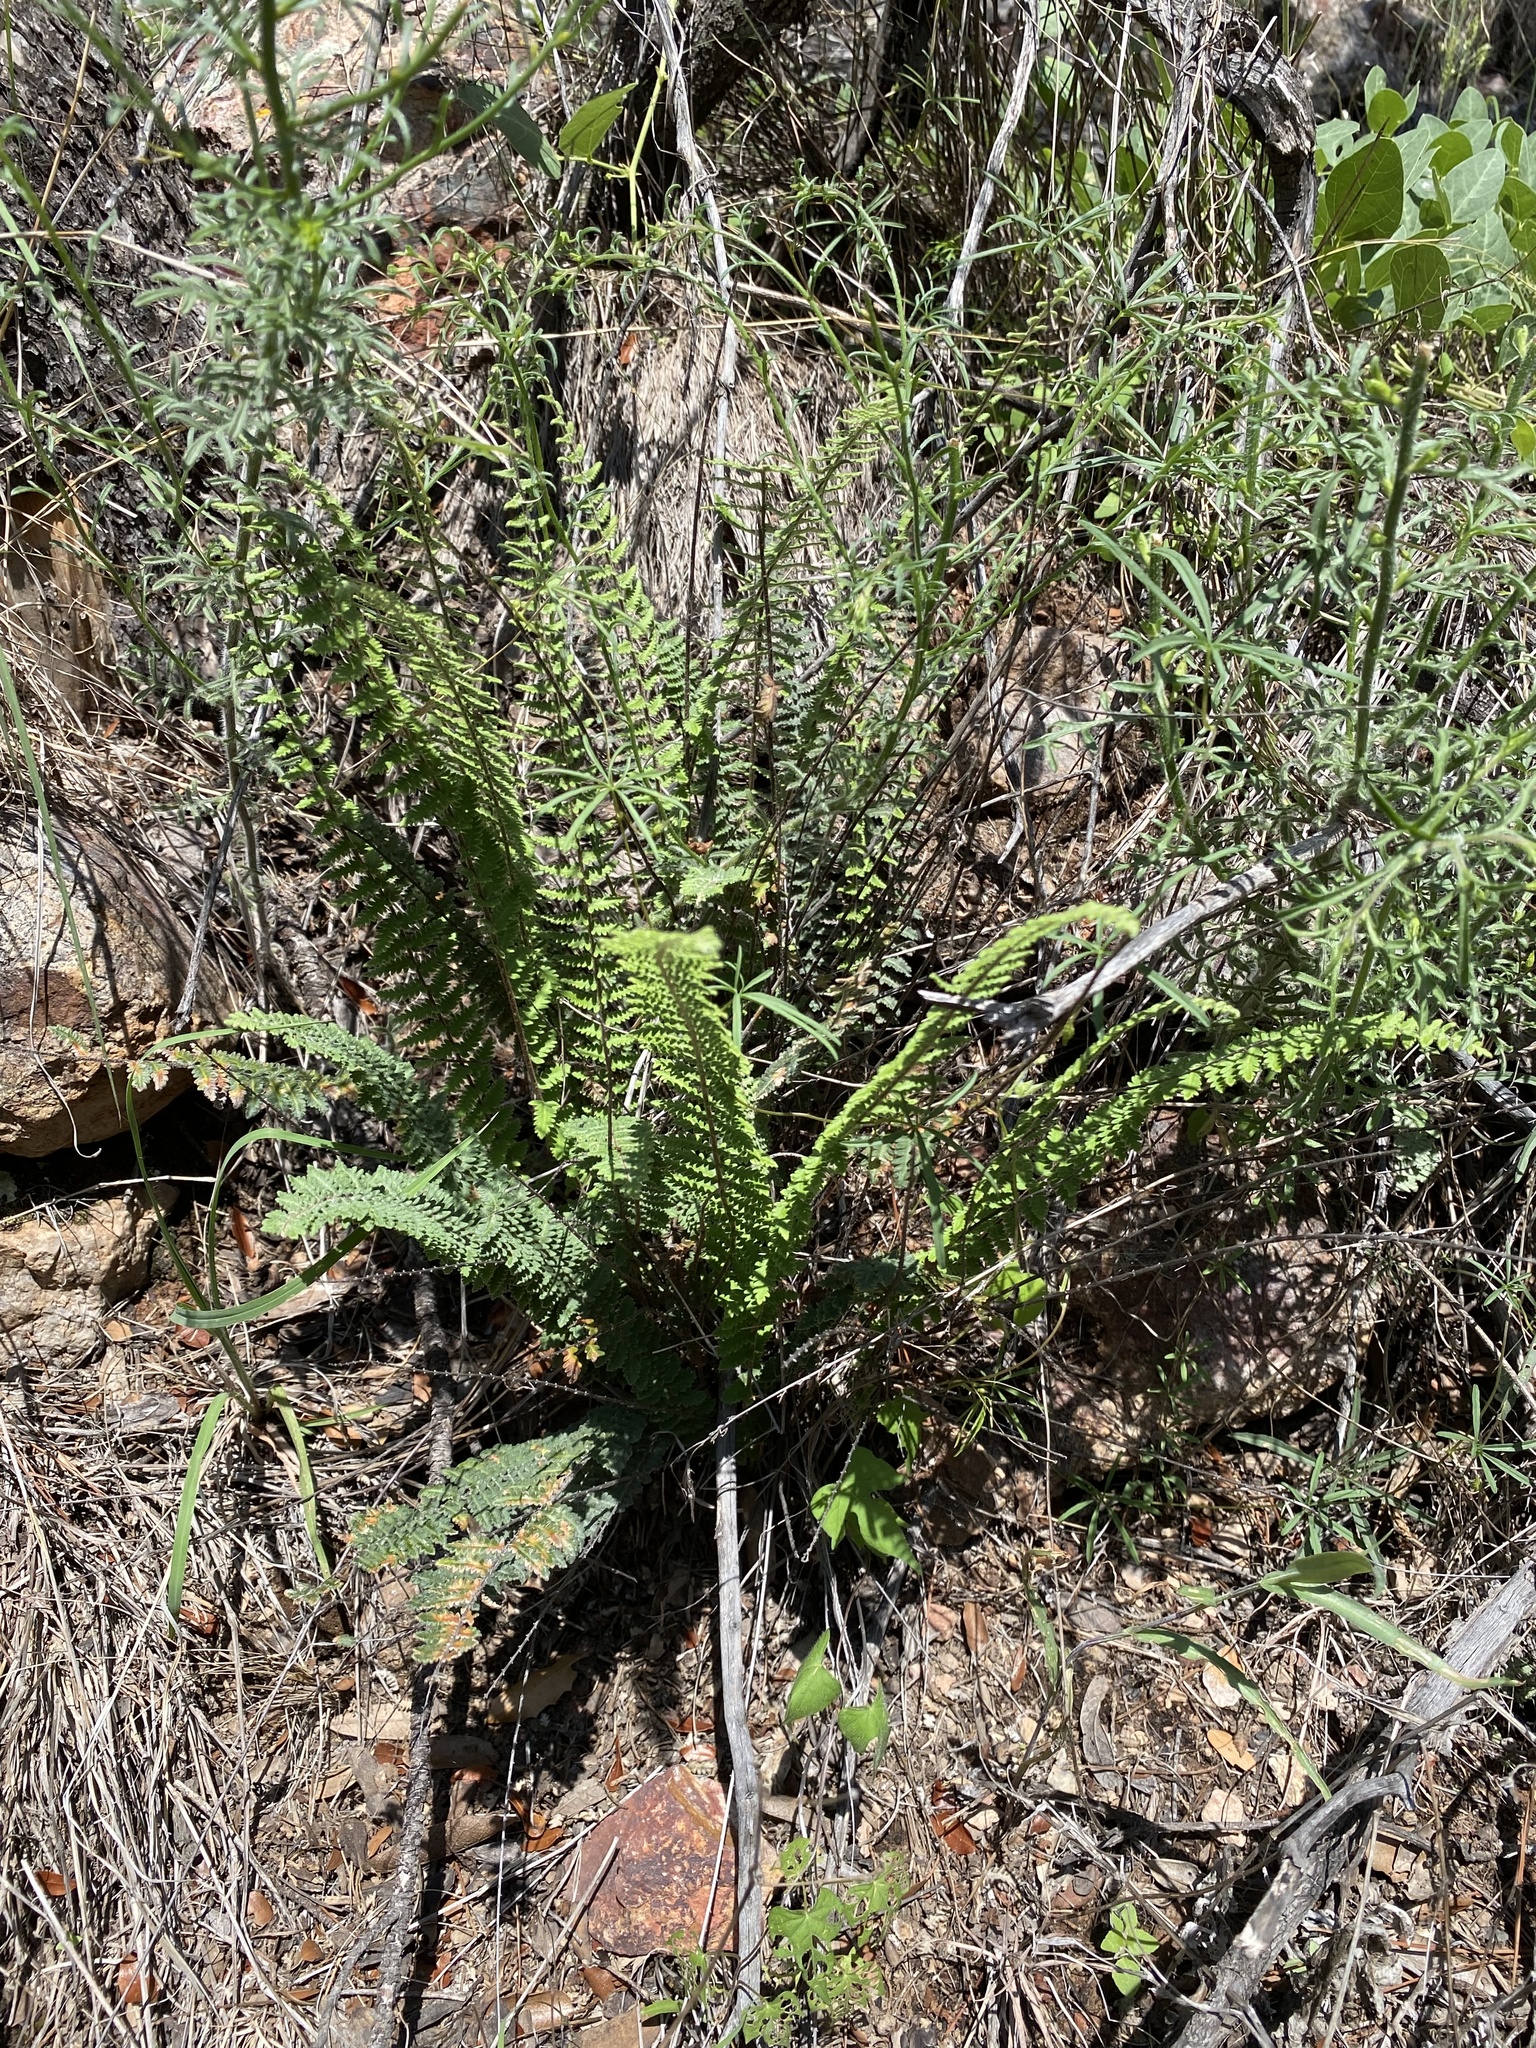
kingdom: Plantae
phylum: Tracheophyta
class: Polypodiopsida
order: Polypodiales
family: Pteridaceae
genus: Myriopteris
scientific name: Myriopteris aurea
